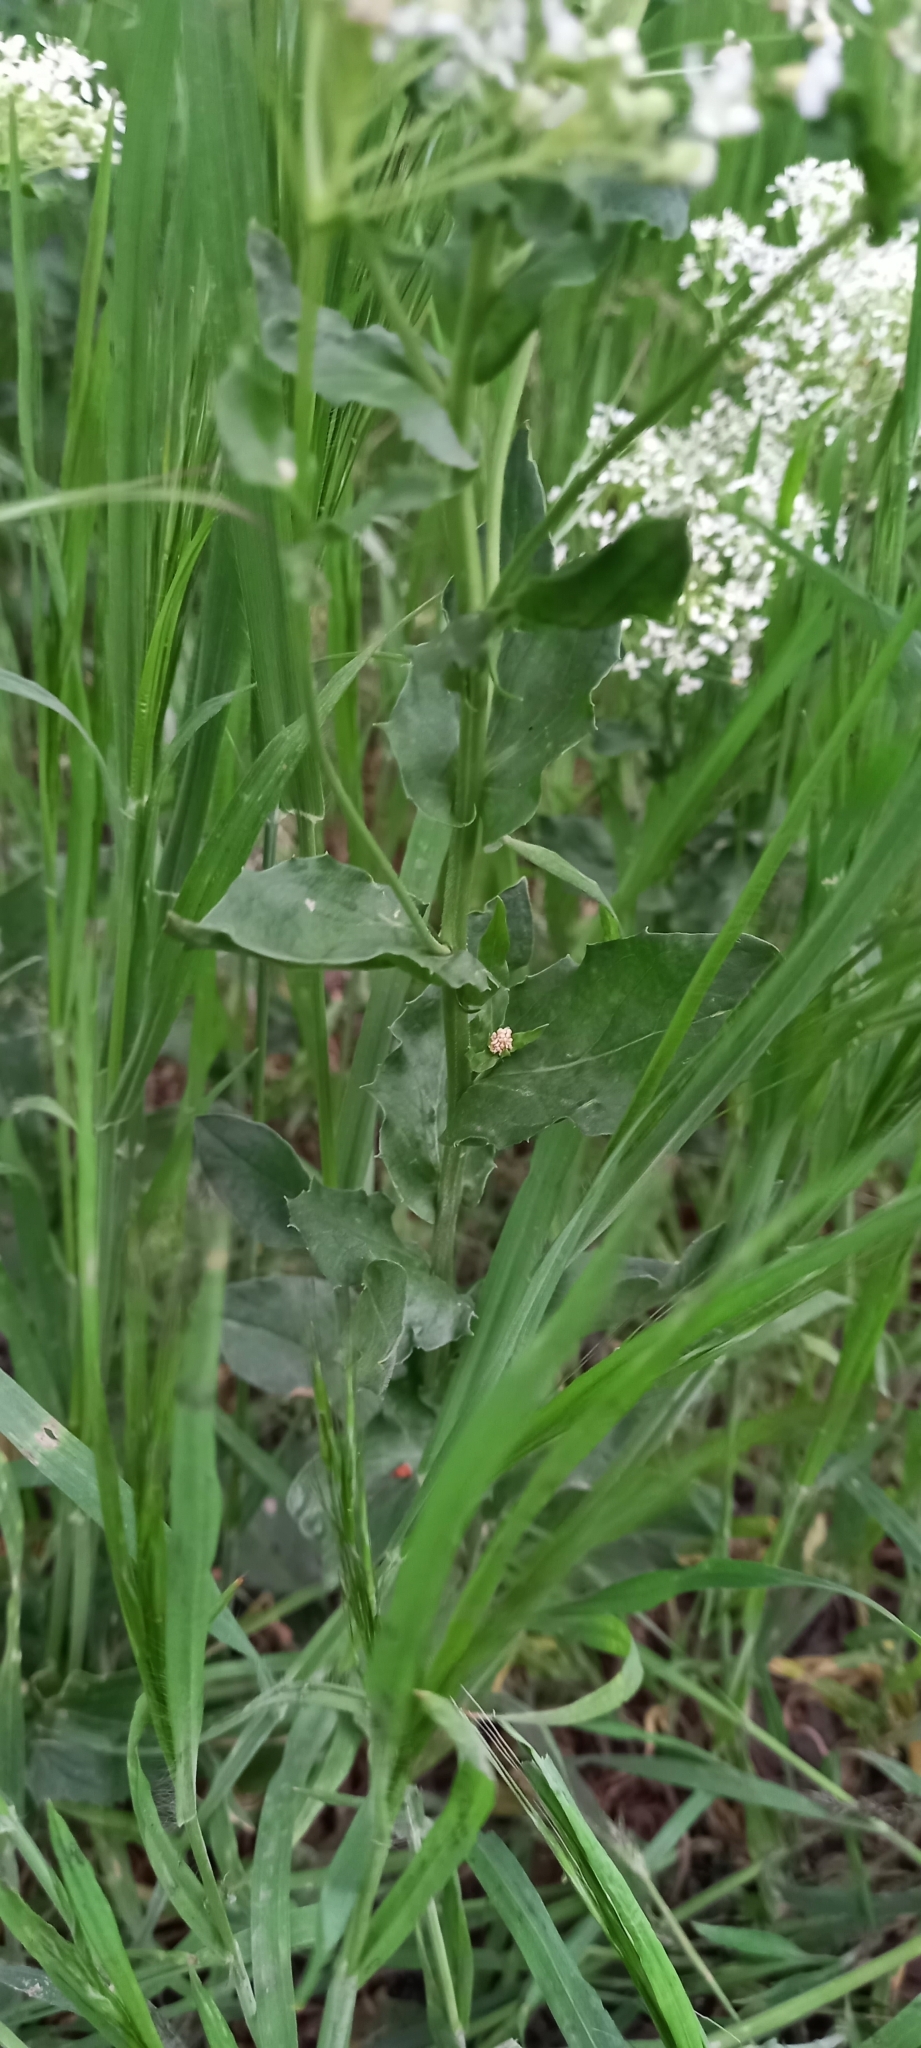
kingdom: Plantae
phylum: Tracheophyta
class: Magnoliopsida
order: Brassicales
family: Brassicaceae
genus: Lepidium
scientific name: Lepidium draba
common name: Hoary cress
